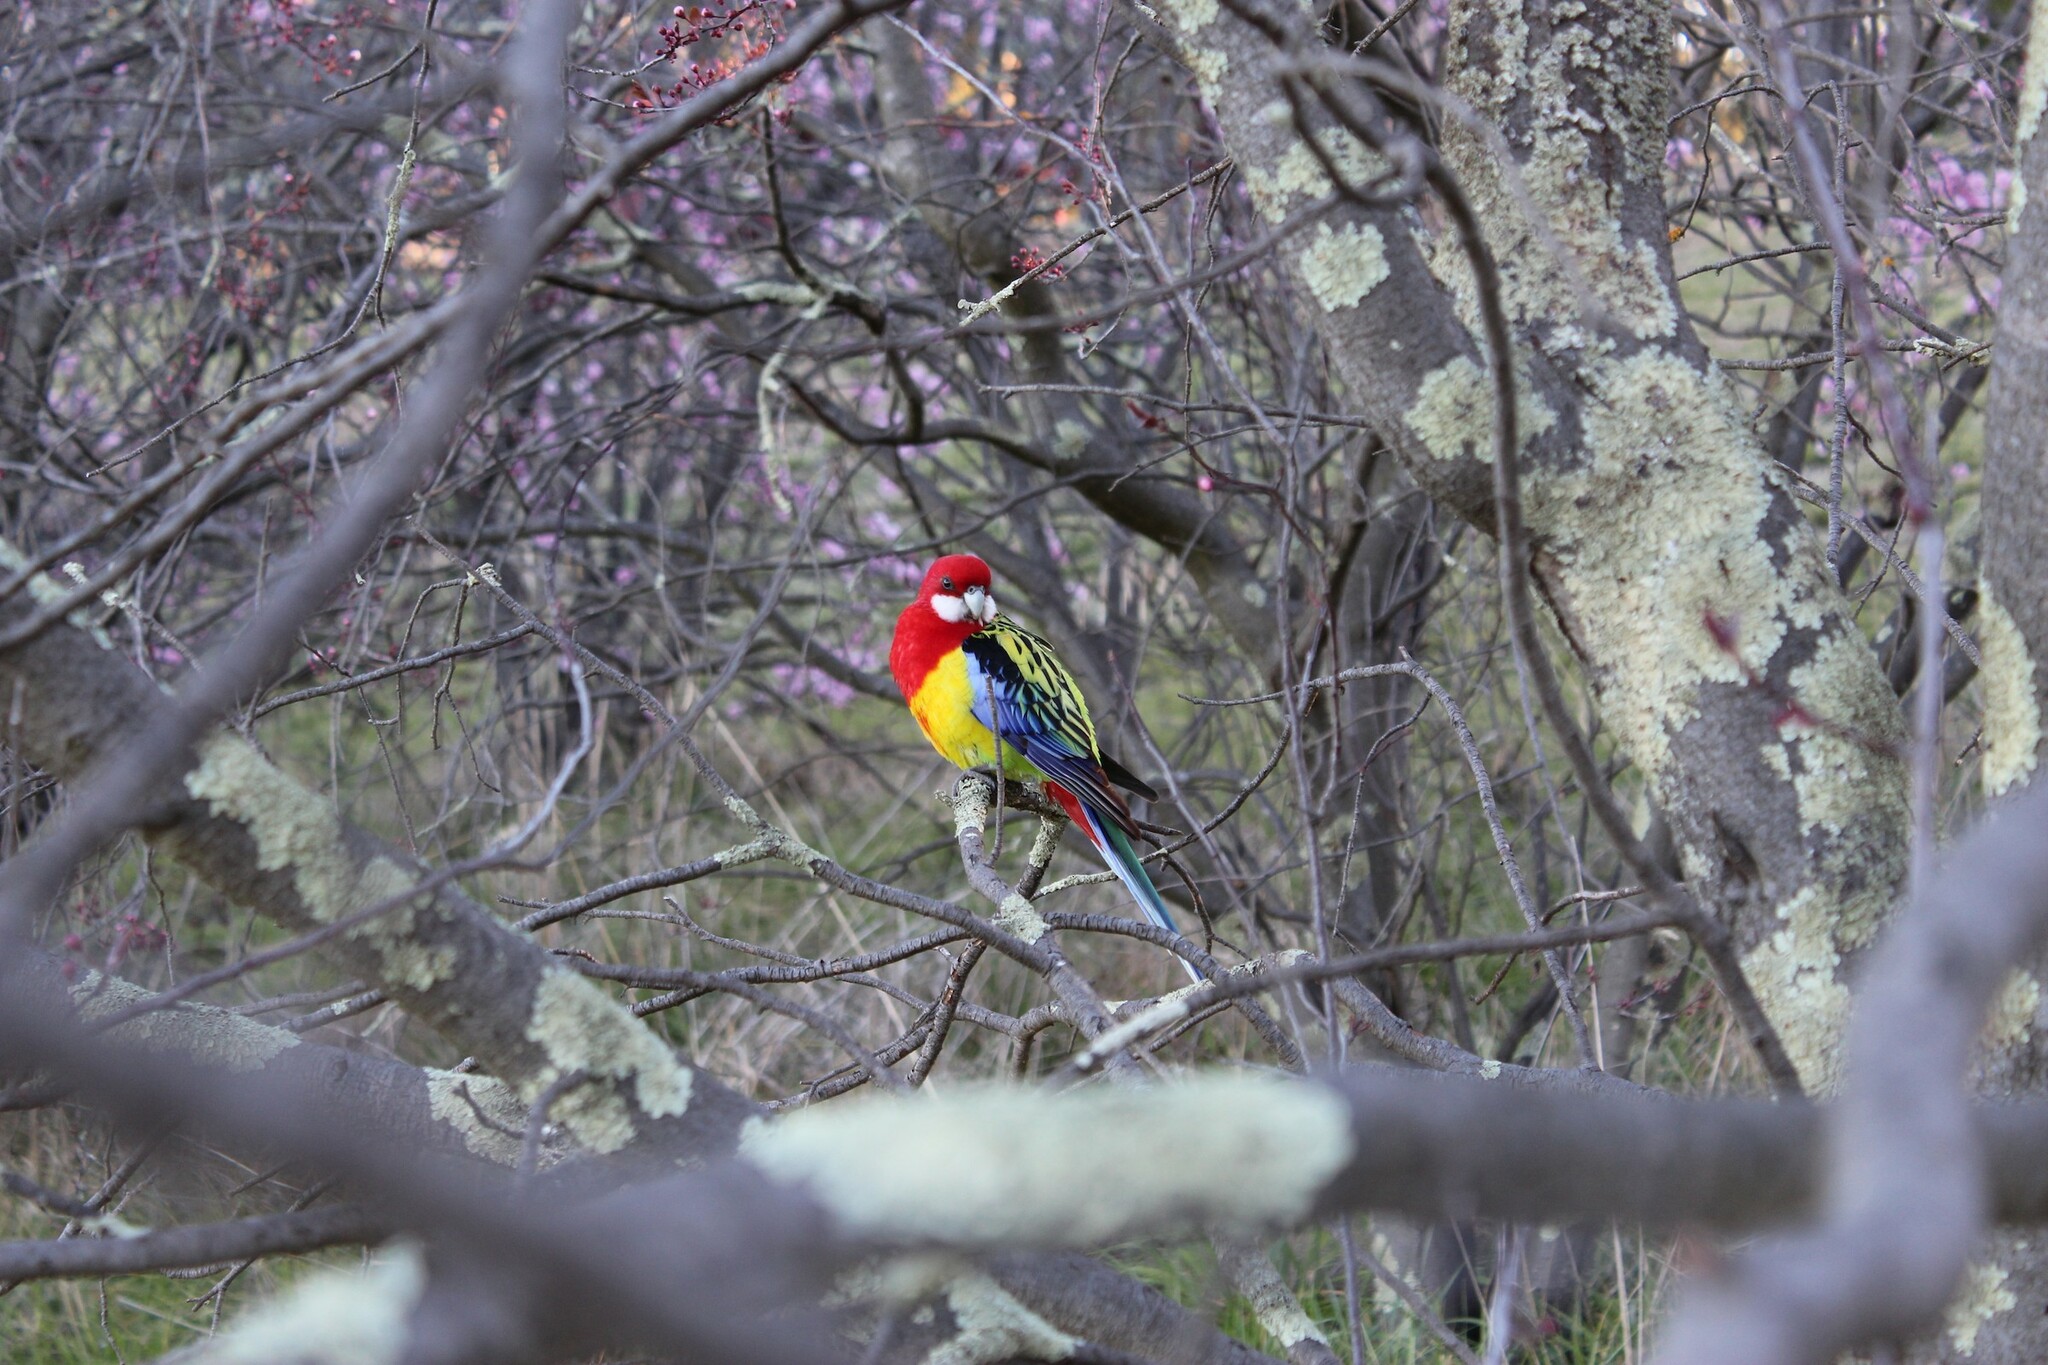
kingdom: Animalia
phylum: Chordata
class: Aves
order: Psittaciformes
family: Psittacidae
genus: Platycercus
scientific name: Platycercus eximius
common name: Eastern rosella
